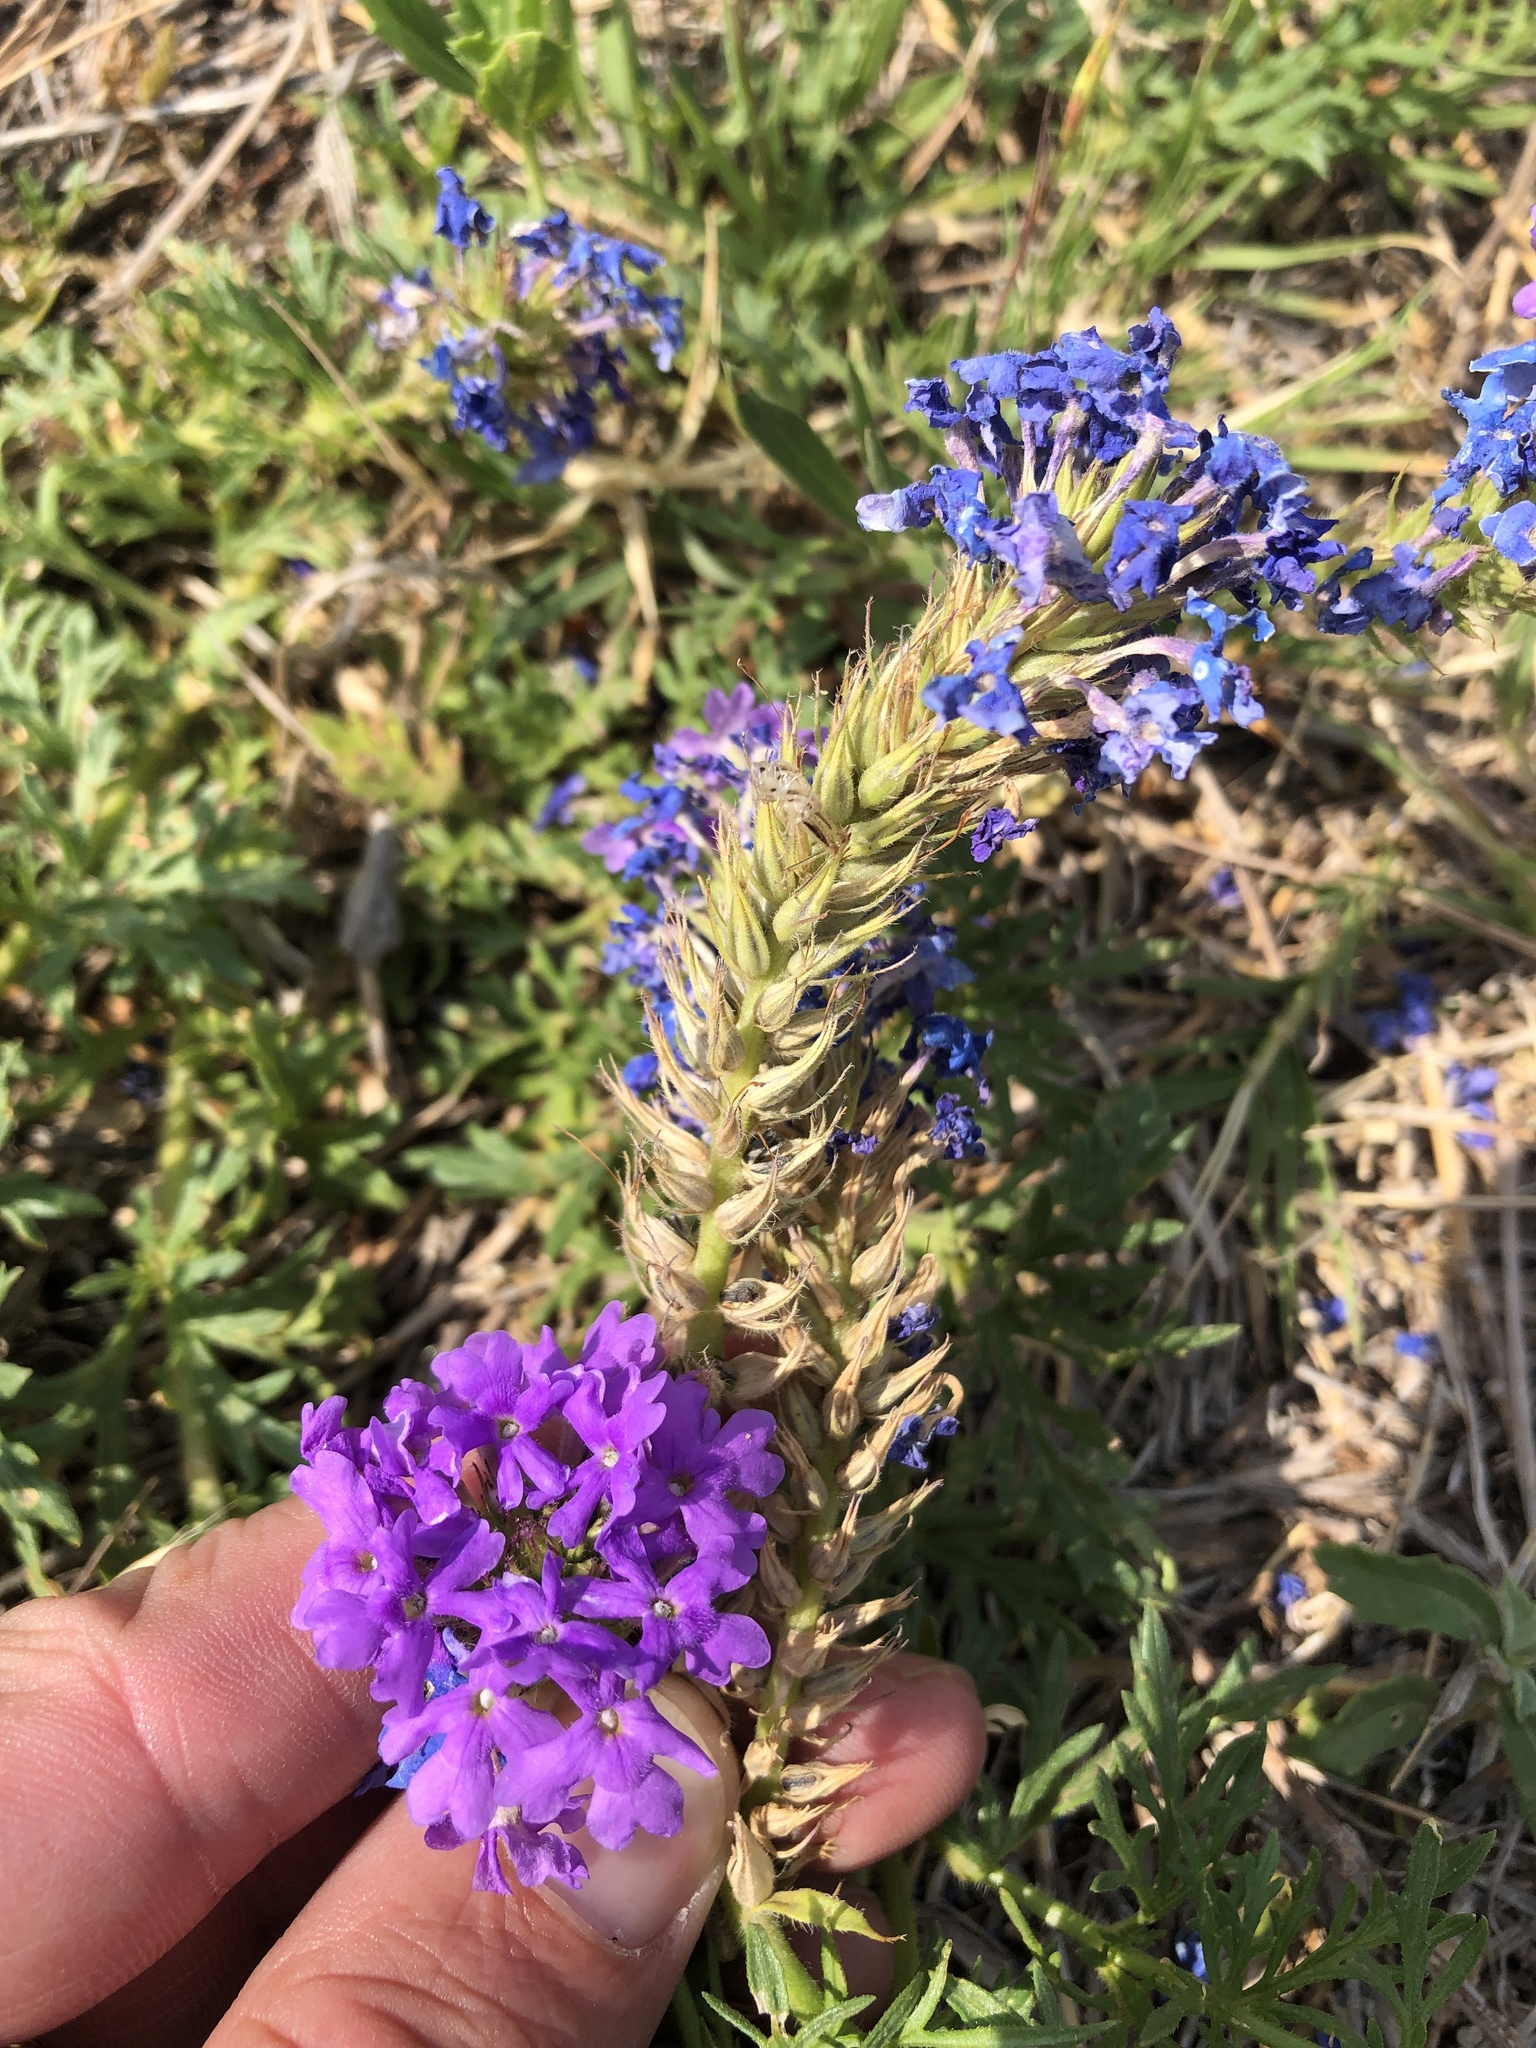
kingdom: Plantae
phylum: Tracheophyta
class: Magnoliopsida
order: Lamiales
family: Verbenaceae
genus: Verbena
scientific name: Verbena bipinnatifida
